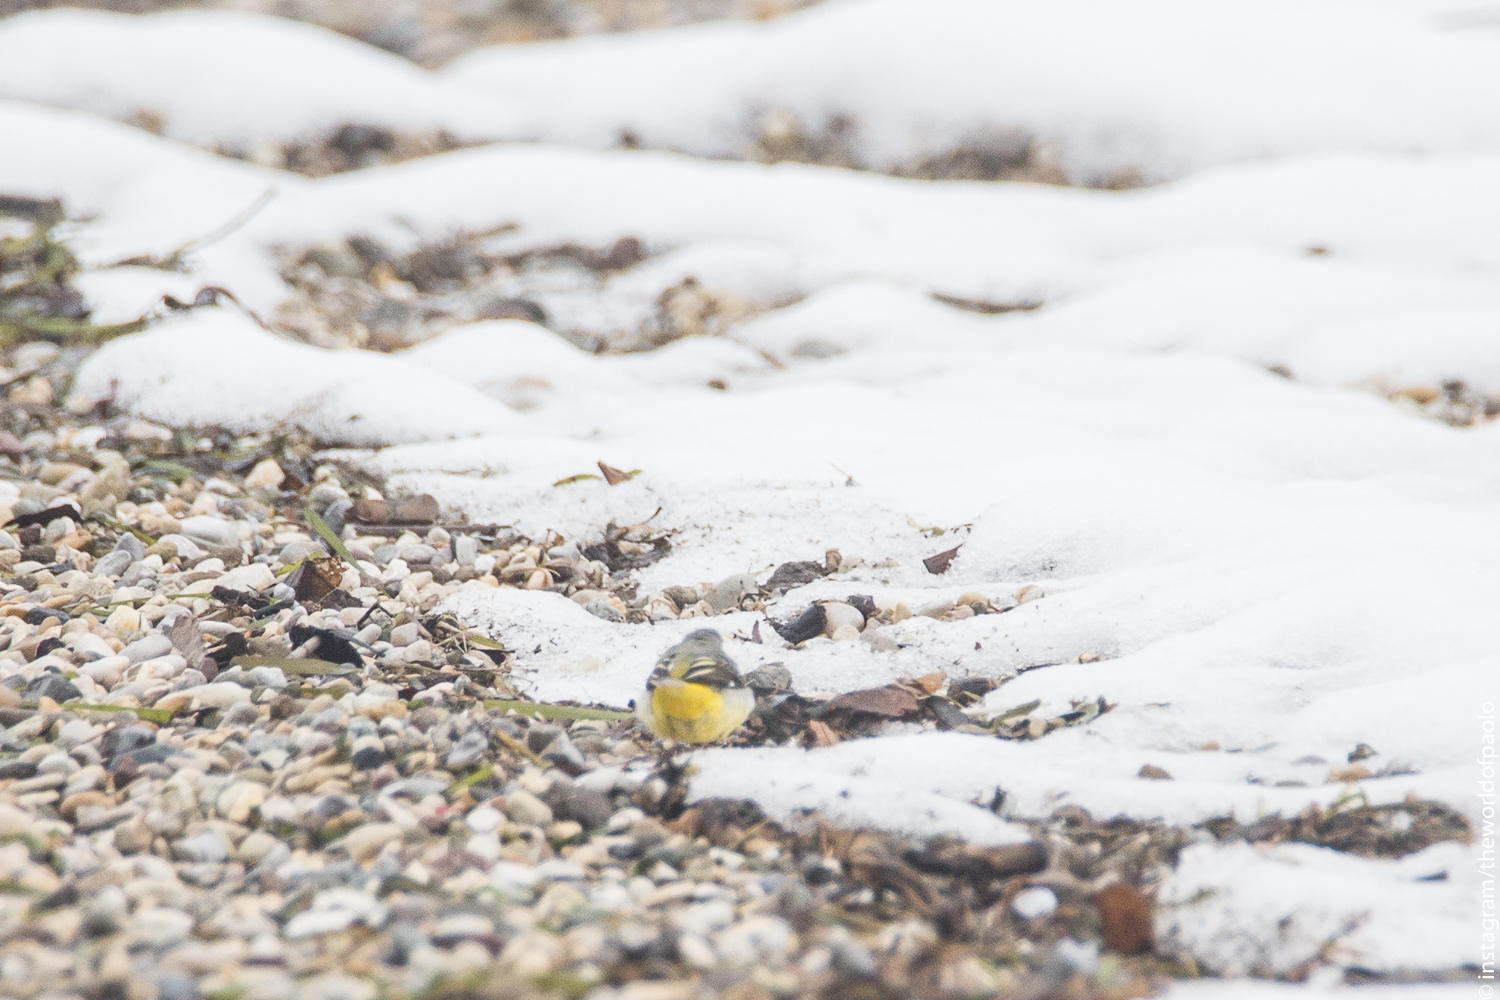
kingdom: Animalia
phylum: Chordata
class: Aves
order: Passeriformes
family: Motacillidae
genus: Motacilla
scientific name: Motacilla cinerea
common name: Grey wagtail
